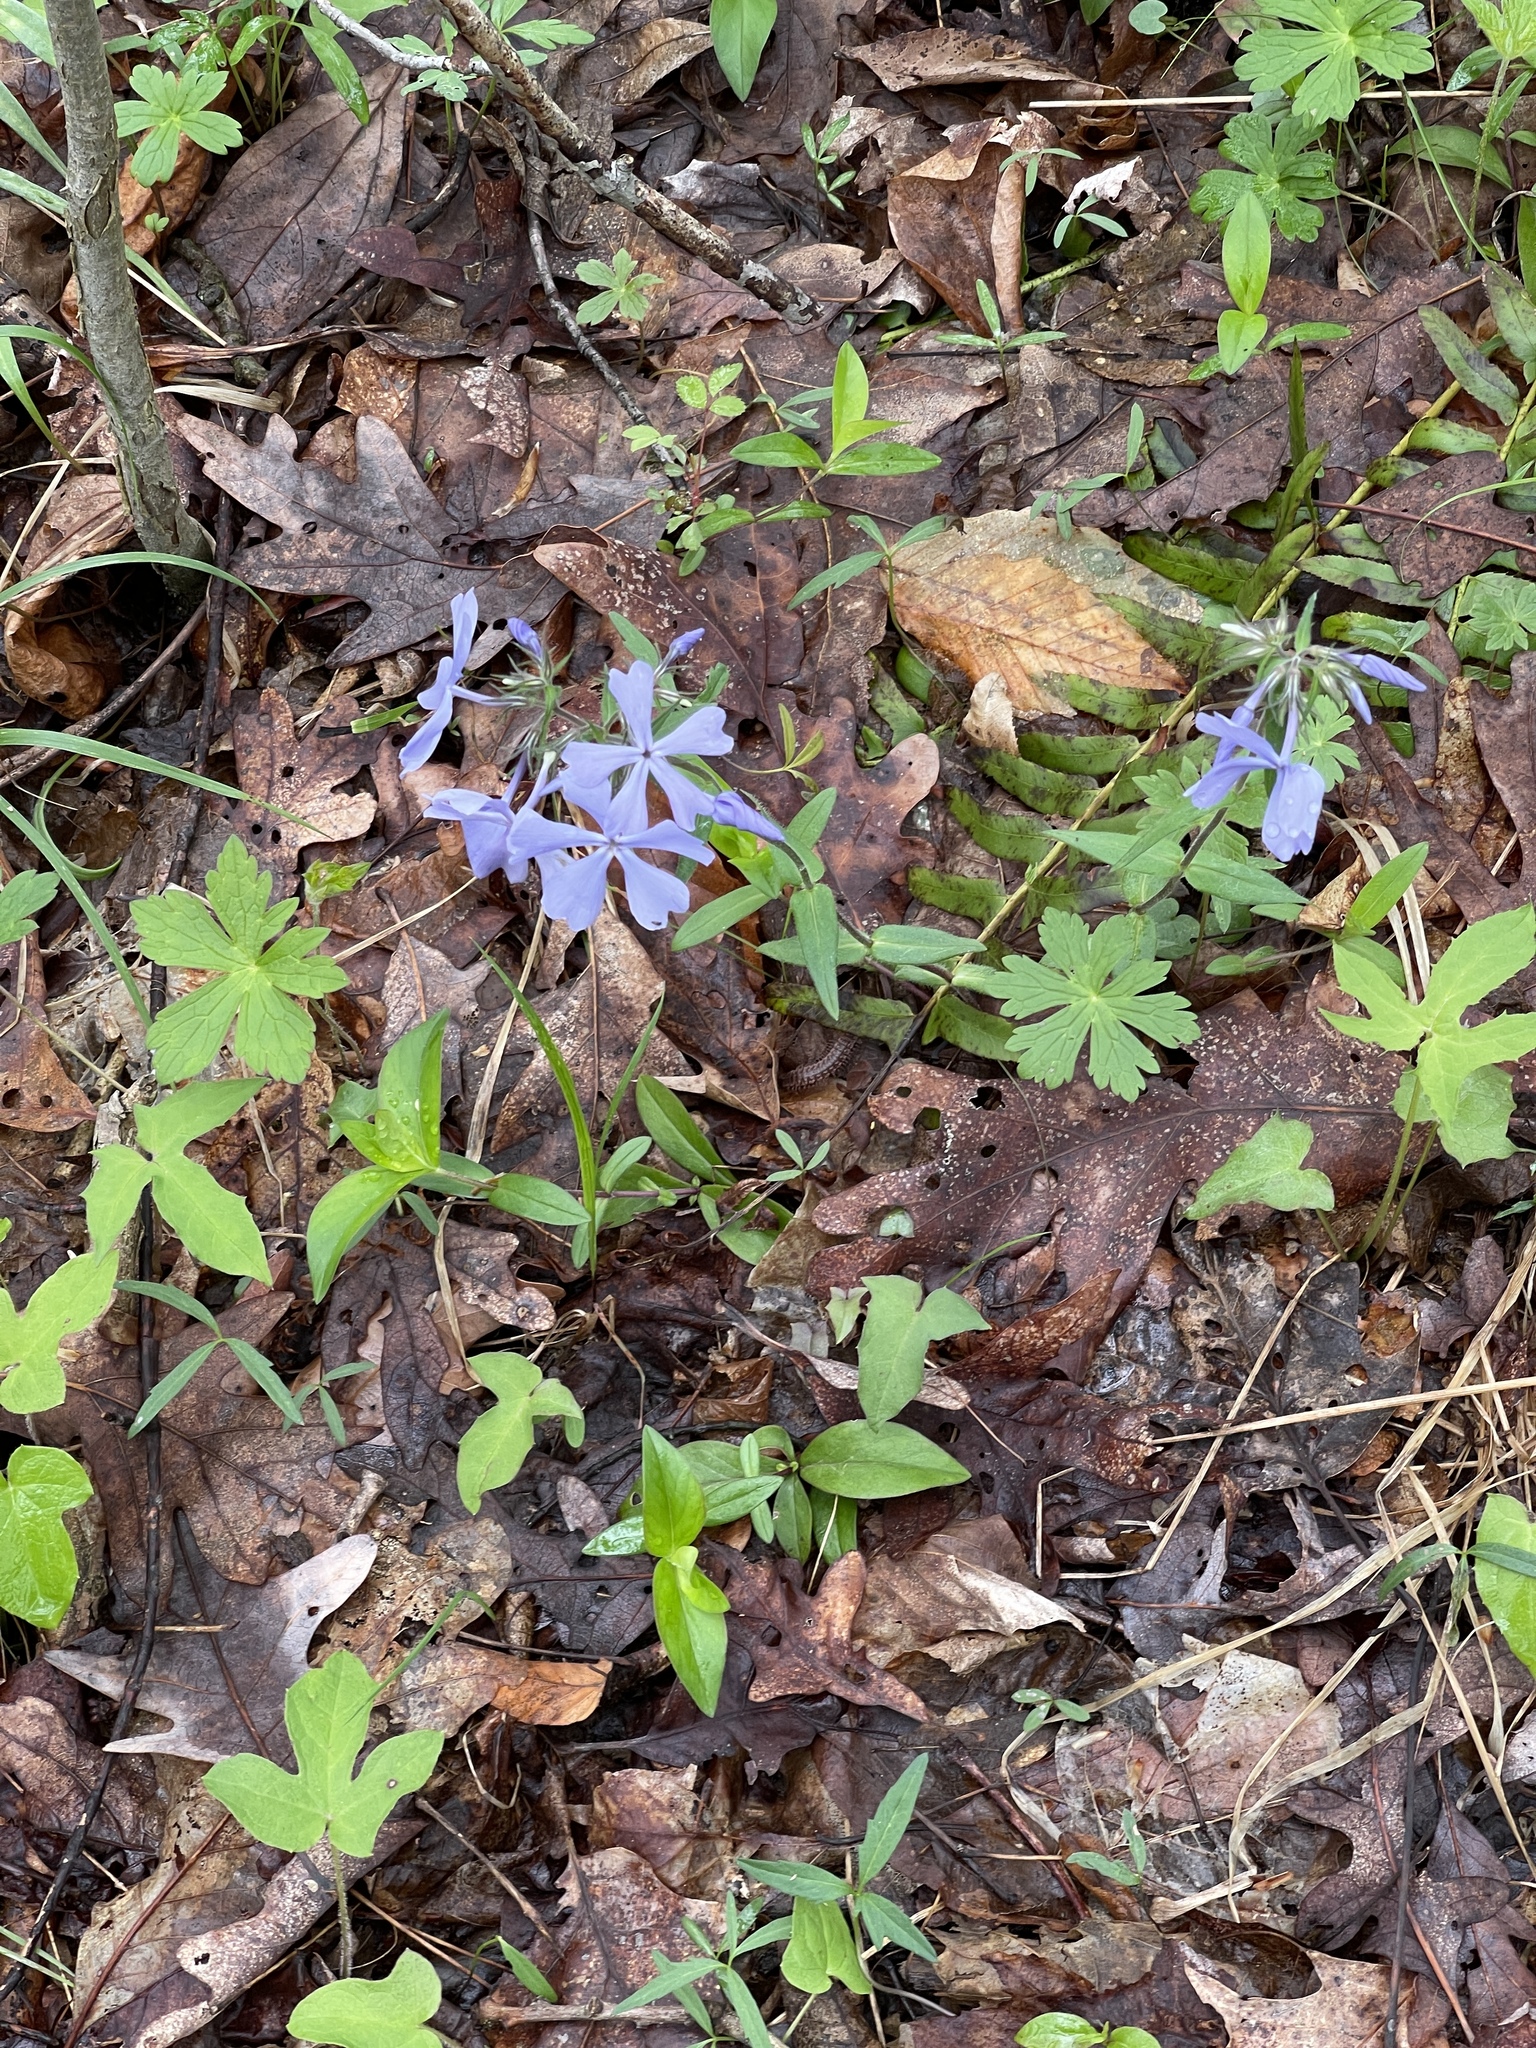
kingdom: Plantae
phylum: Tracheophyta
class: Magnoliopsida
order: Ericales
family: Polemoniaceae
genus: Phlox
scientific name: Phlox divaricata
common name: Blue phlox
